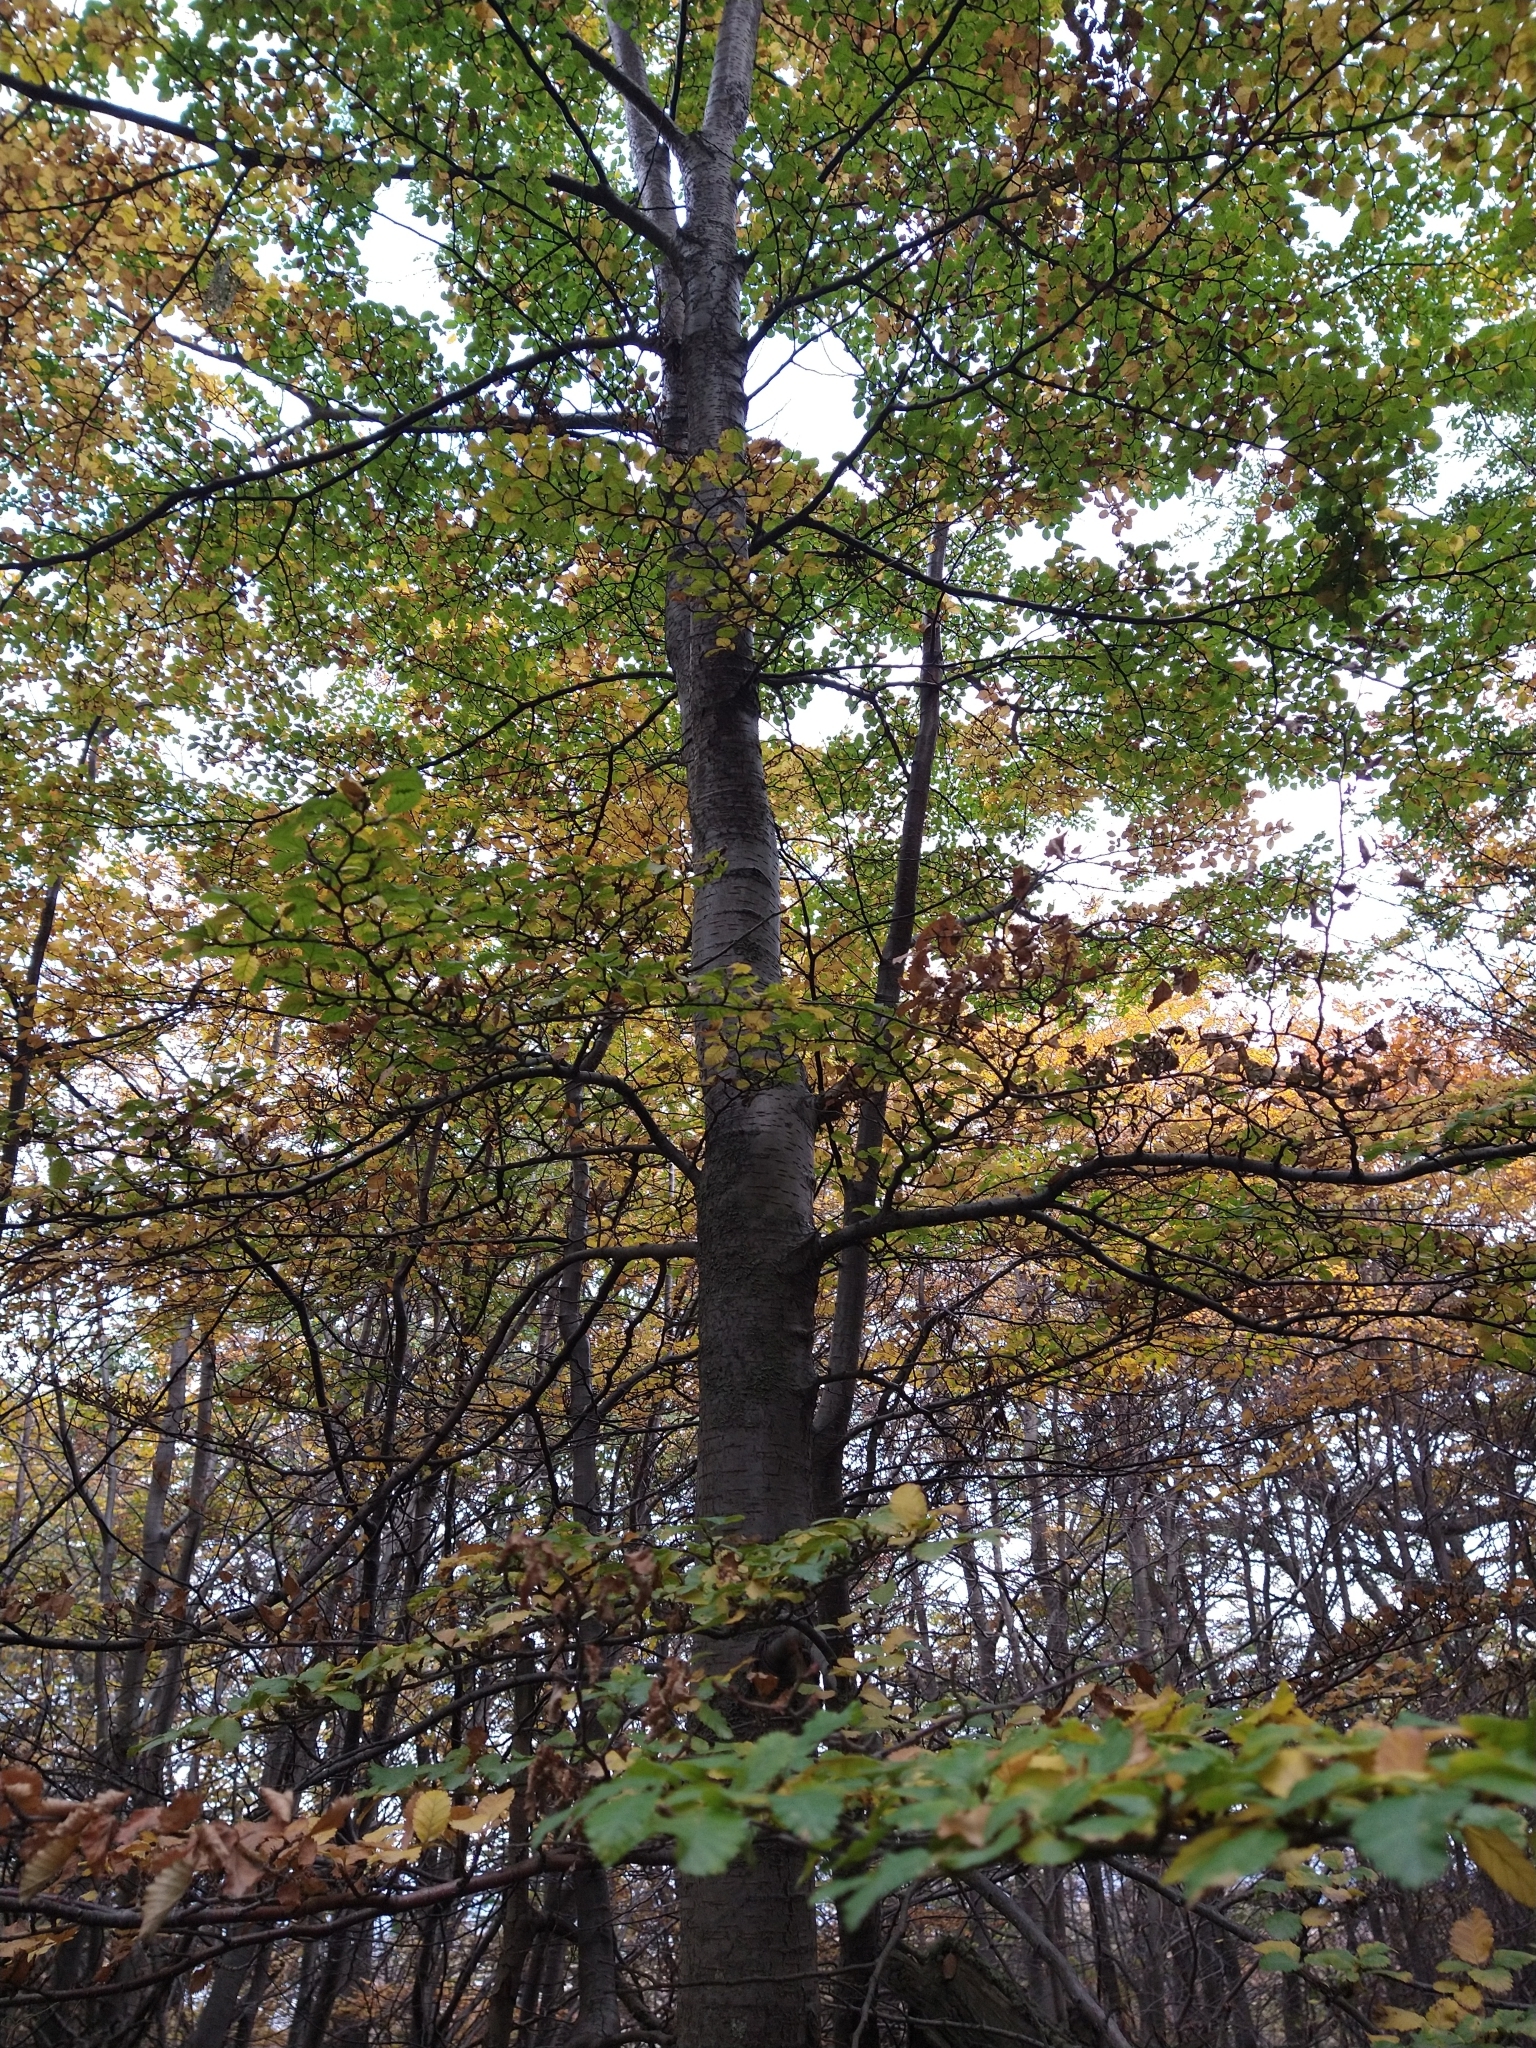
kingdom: Plantae
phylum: Tracheophyta
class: Magnoliopsida
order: Fagales
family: Nothofagaceae
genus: Nothofagus
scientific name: Nothofagus pumilio
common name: Lenga beech
